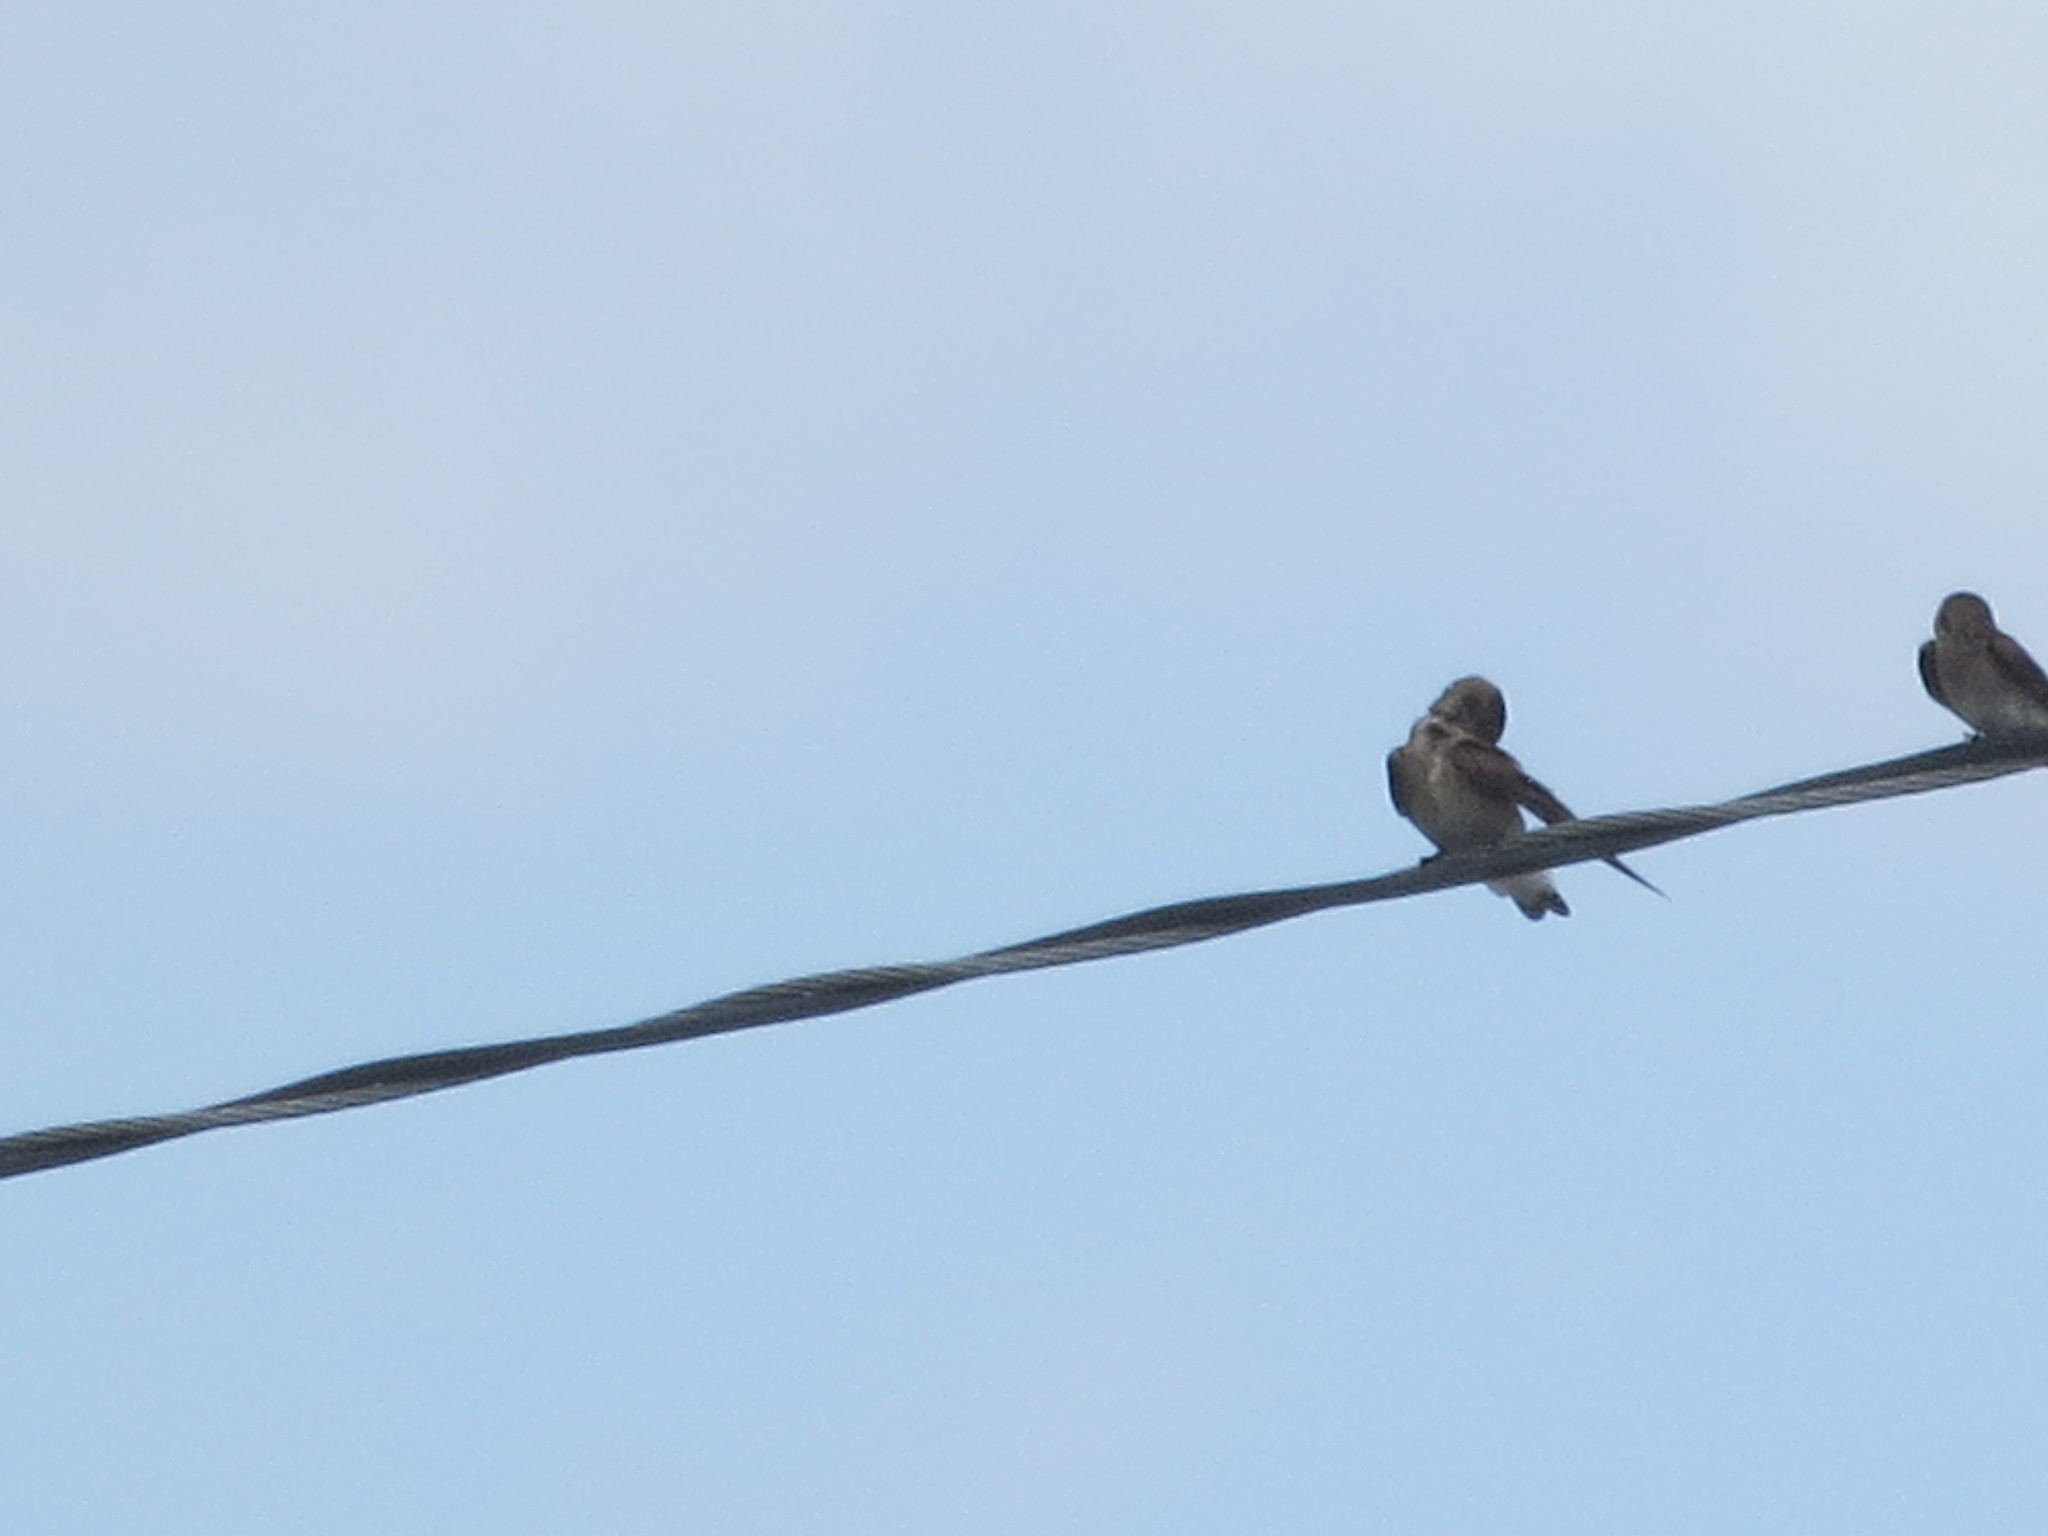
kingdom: Animalia
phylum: Chordata
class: Aves
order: Passeriformes
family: Hirundinidae
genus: Stelgidopteryx
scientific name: Stelgidopteryx serripennis
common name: Northern rough-winged swallow
